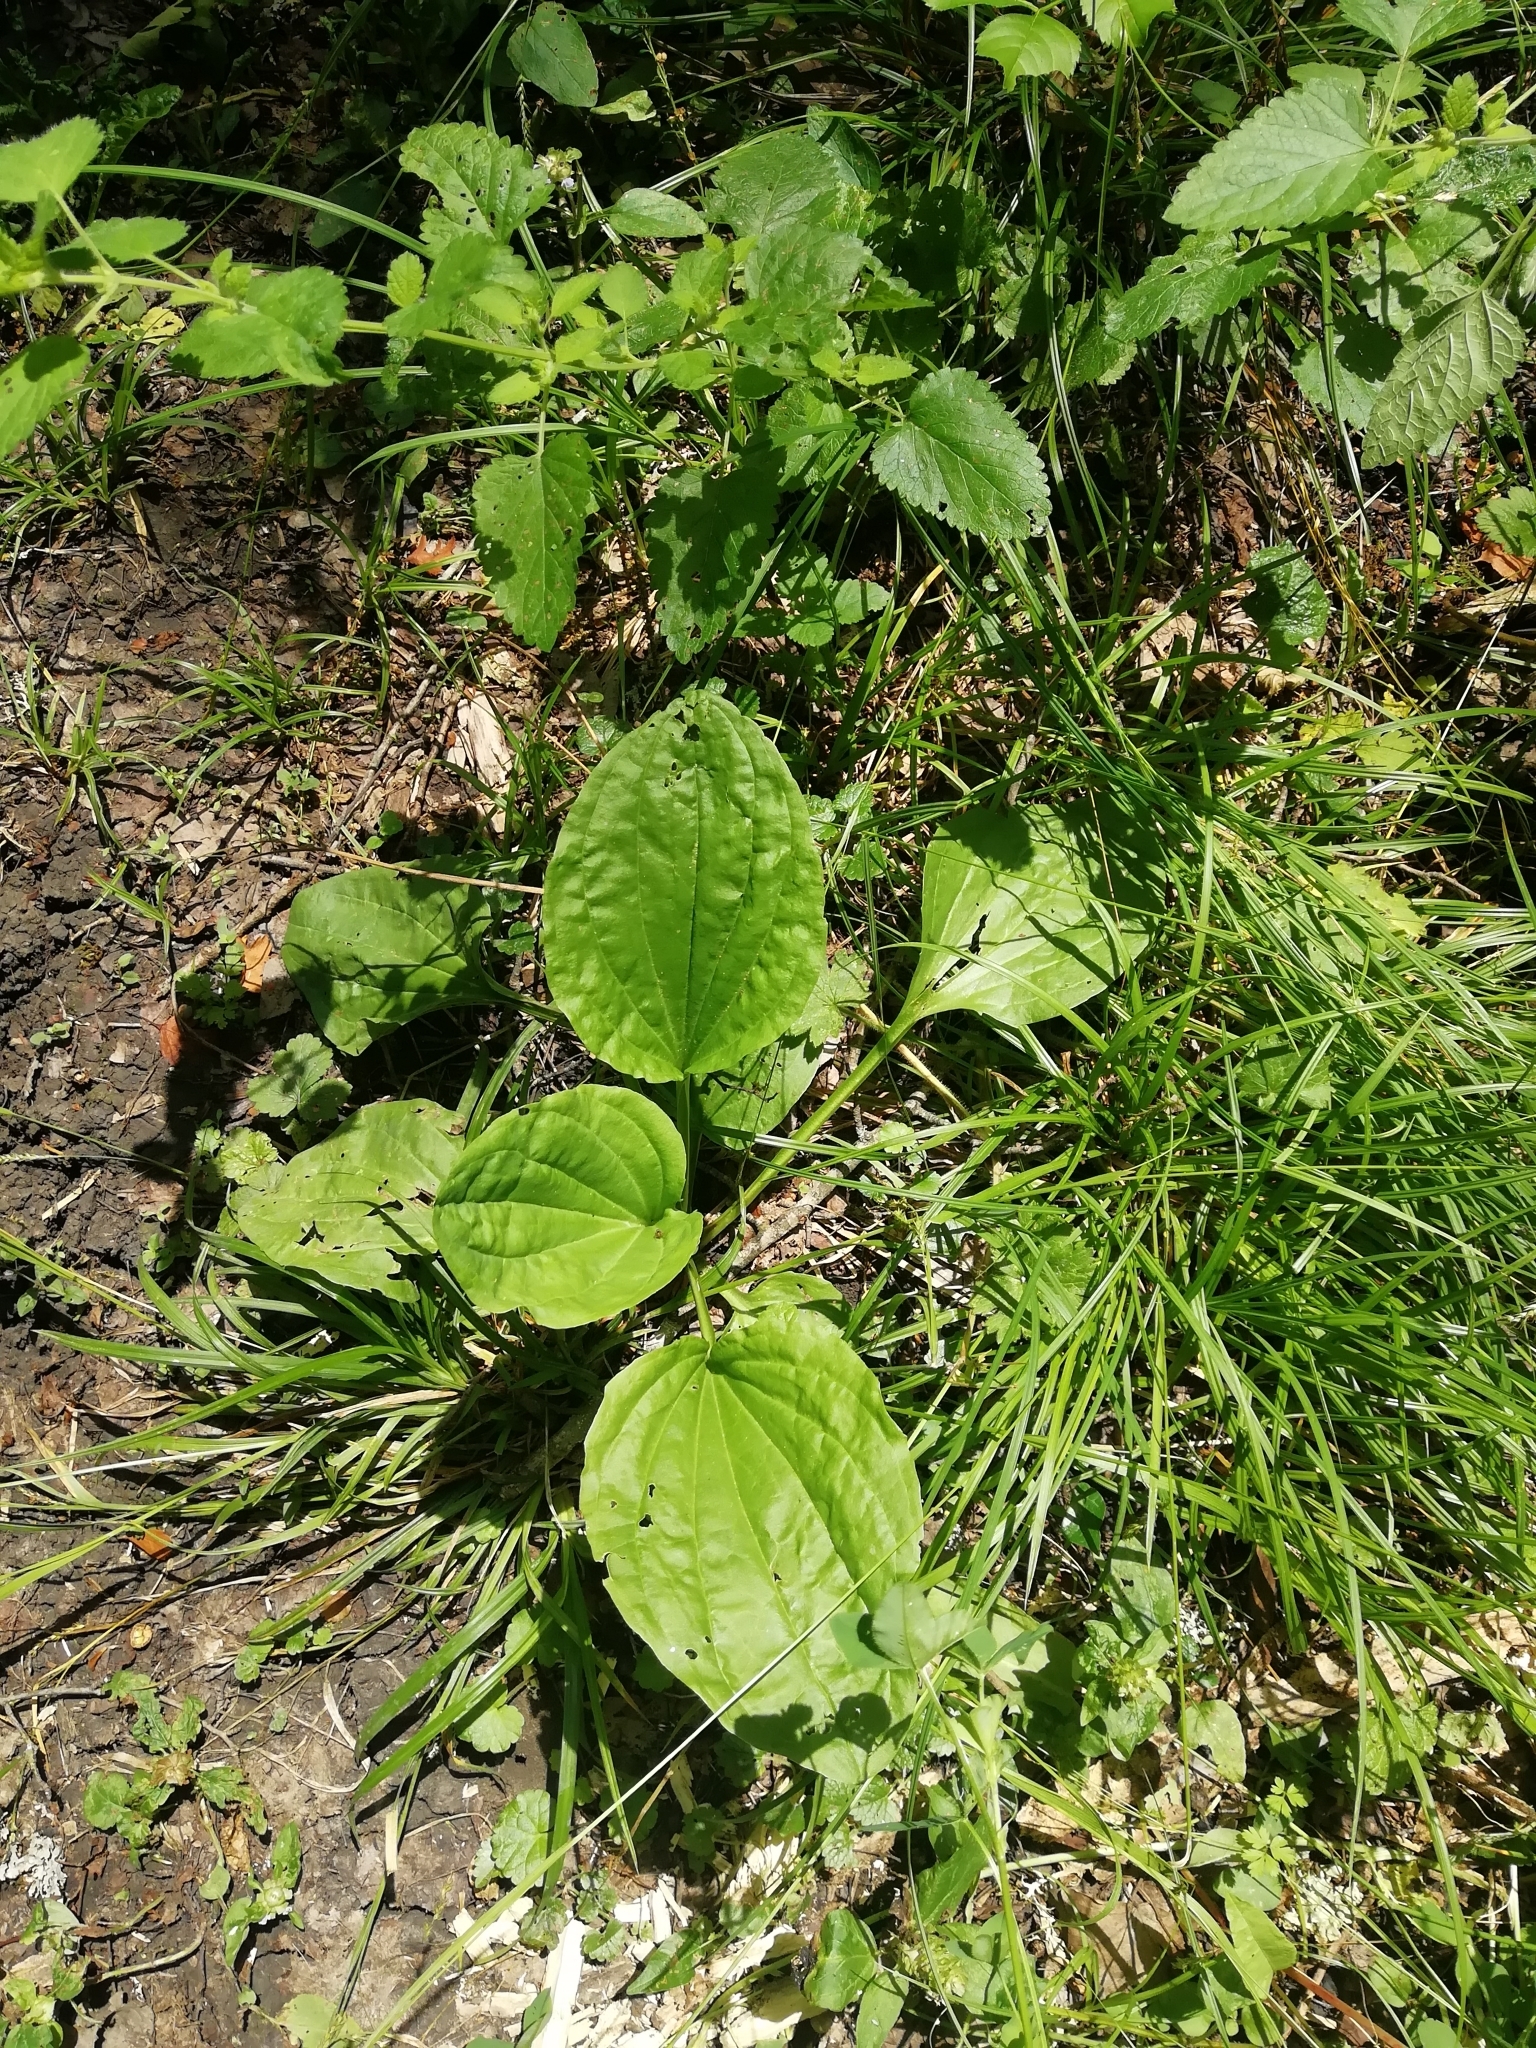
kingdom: Plantae
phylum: Tracheophyta
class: Magnoliopsida
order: Lamiales
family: Plantaginaceae
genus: Plantago
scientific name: Plantago major
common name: Common plantain
